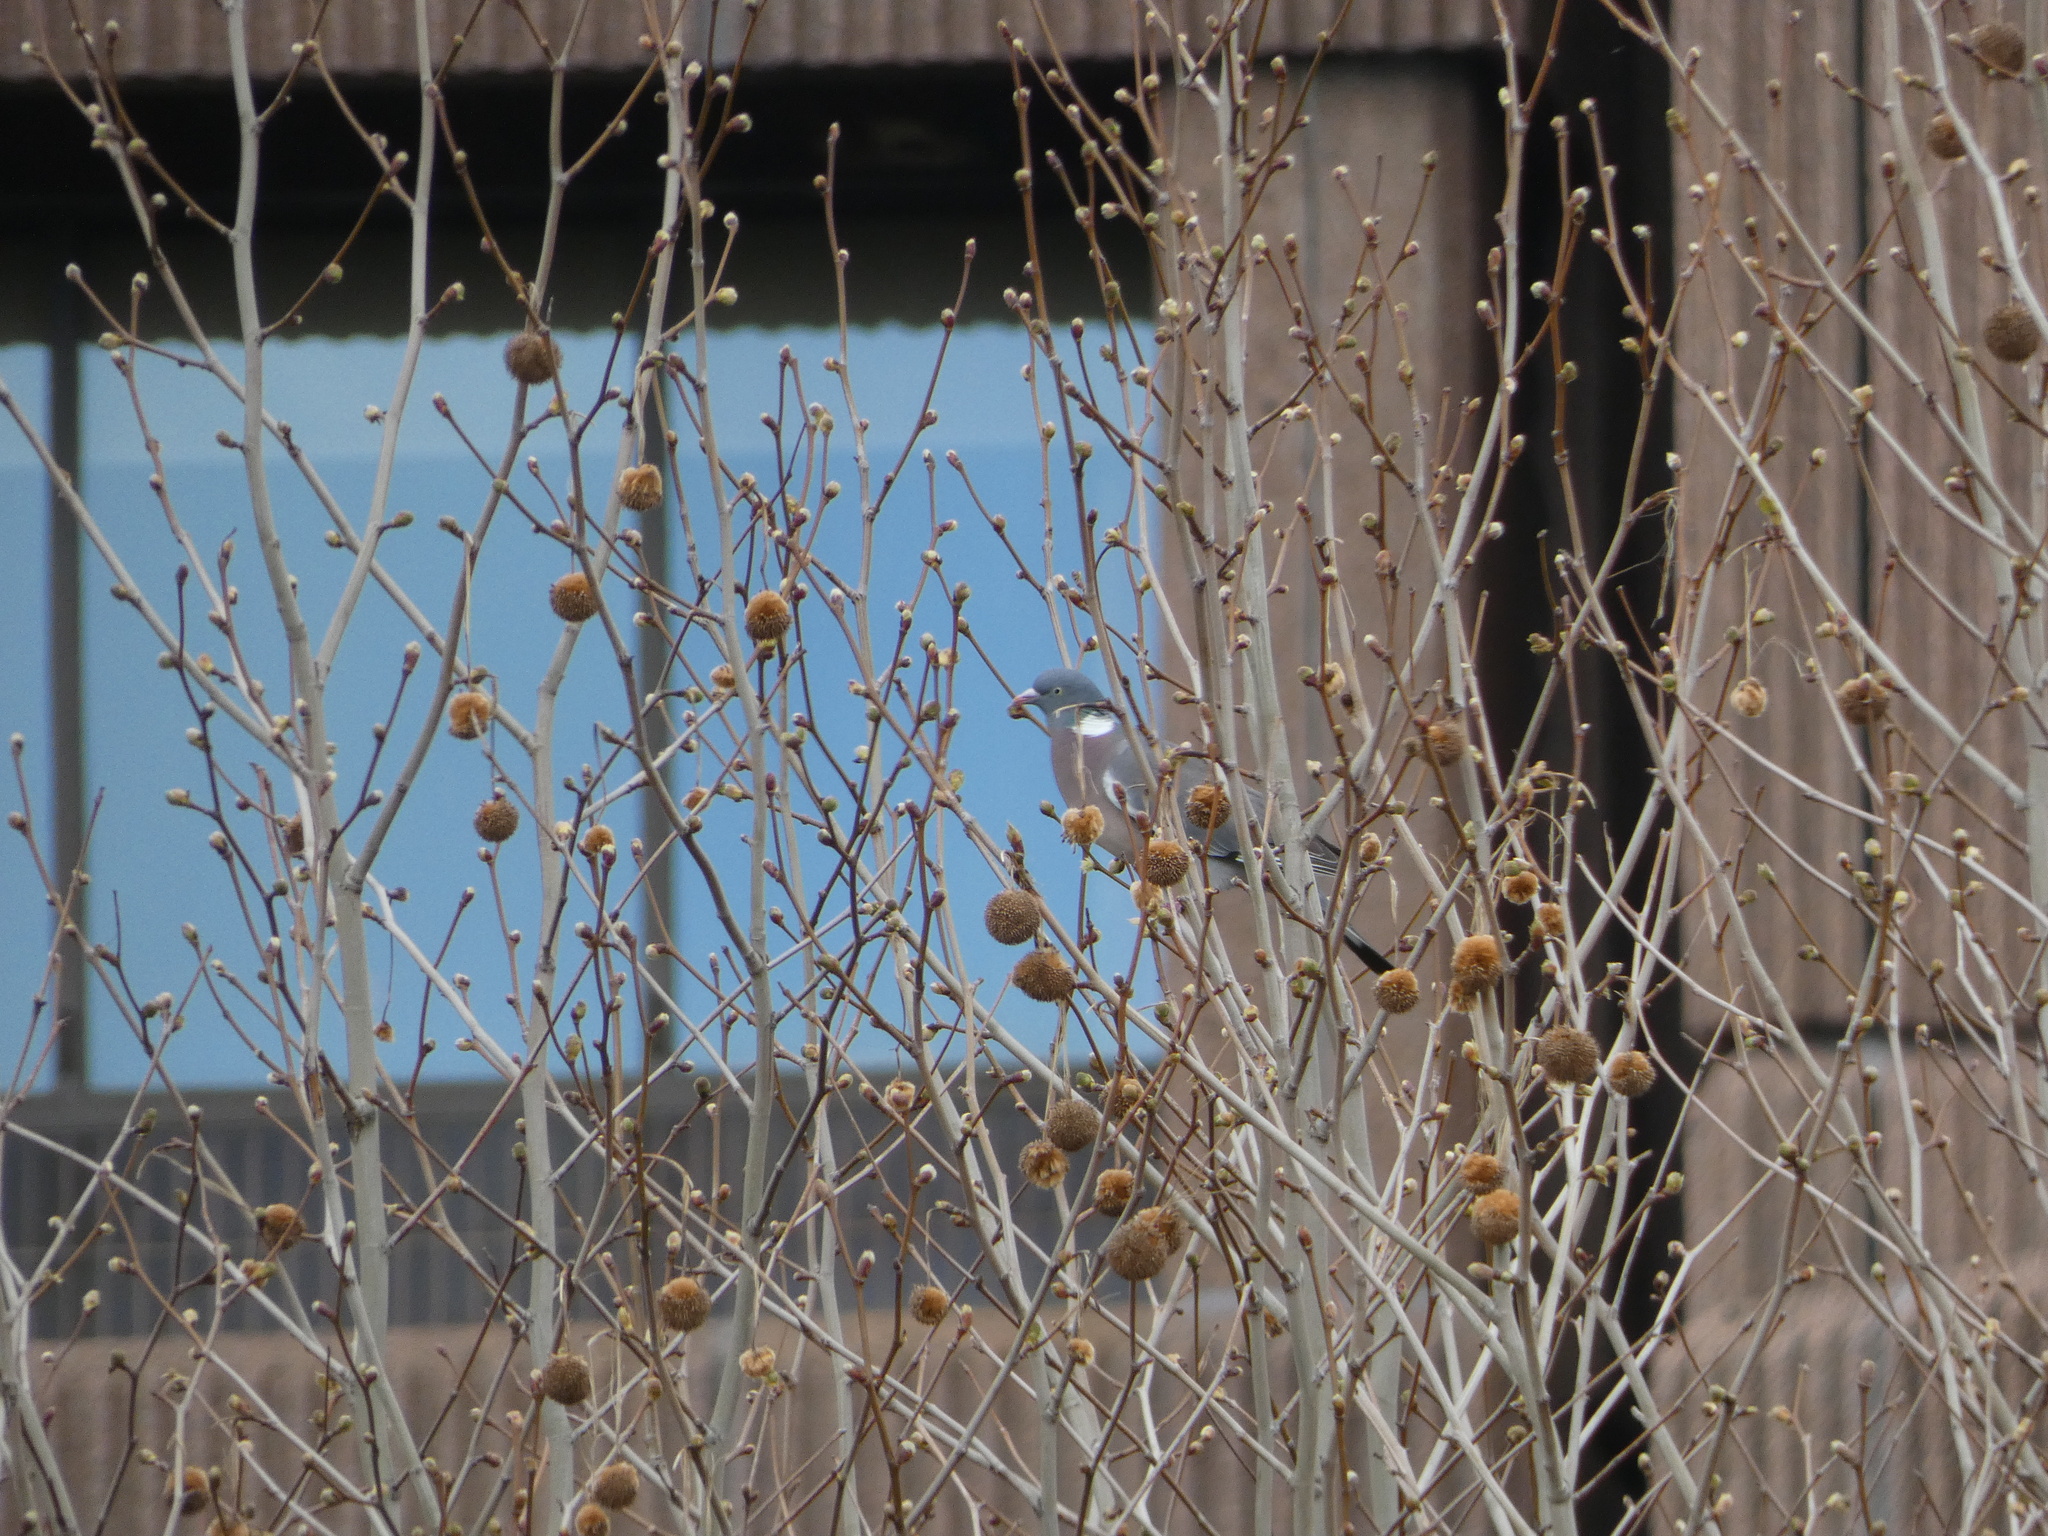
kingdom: Animalia
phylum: Chordata
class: Aves
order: Columbiformes
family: Columbidae
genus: Columba
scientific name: Columba palumbus
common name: Common wood pigeon
